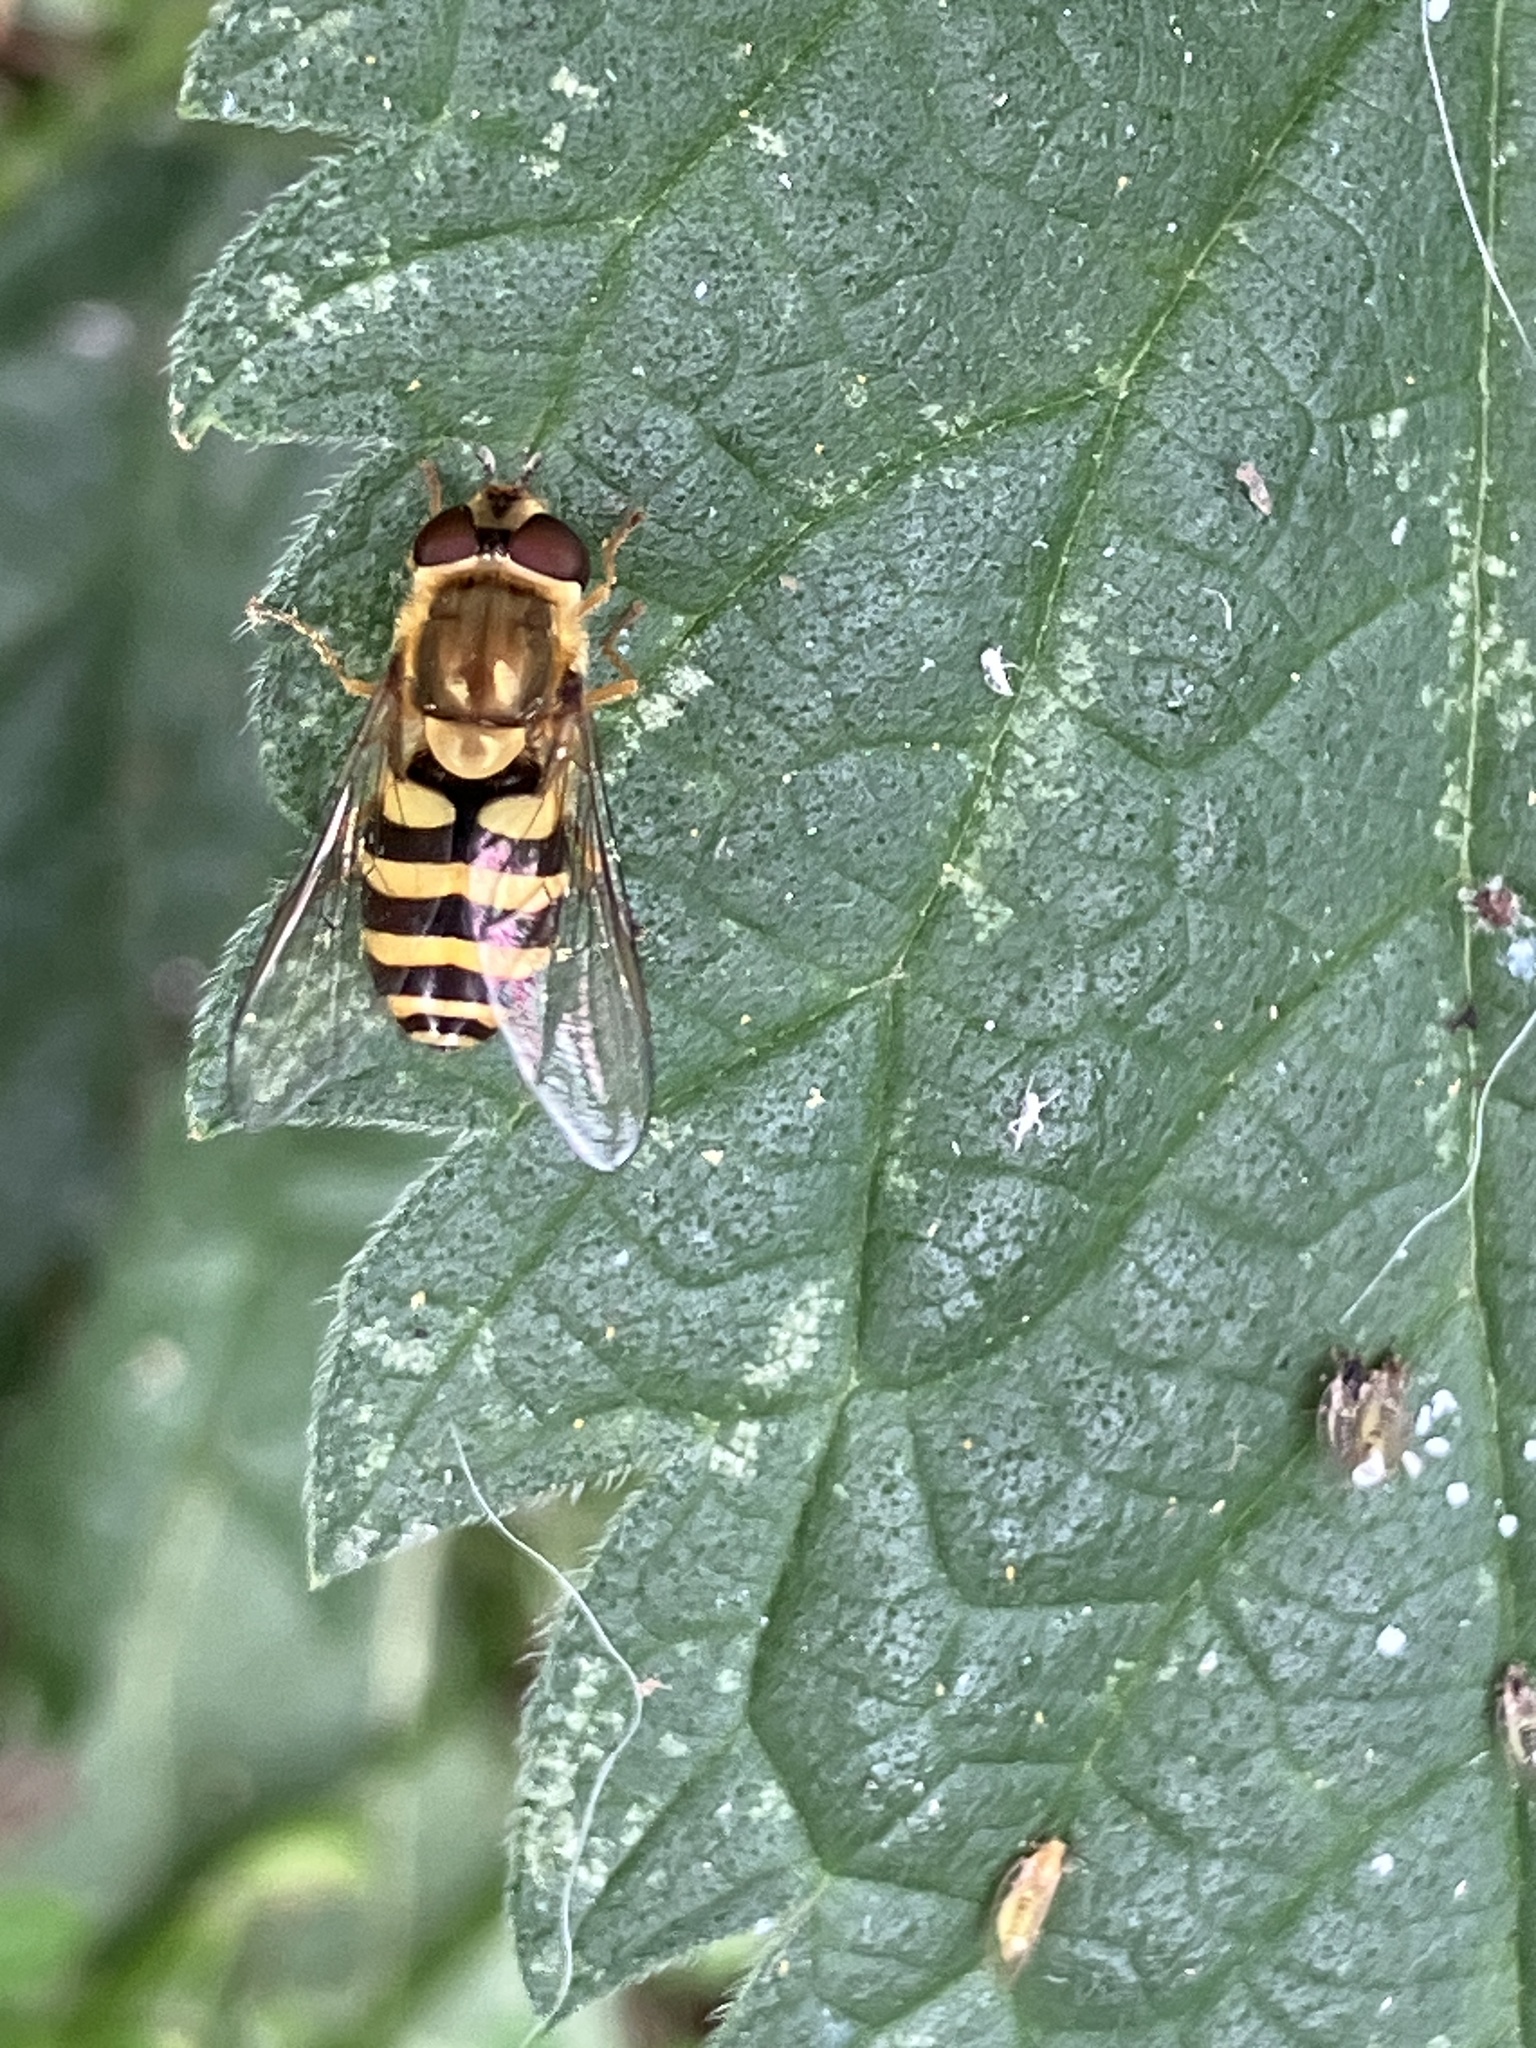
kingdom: Animalia
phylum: Arthropoda
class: Insecta
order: Diptera
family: Syrphidae
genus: Syrphus
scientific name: Syrphus
